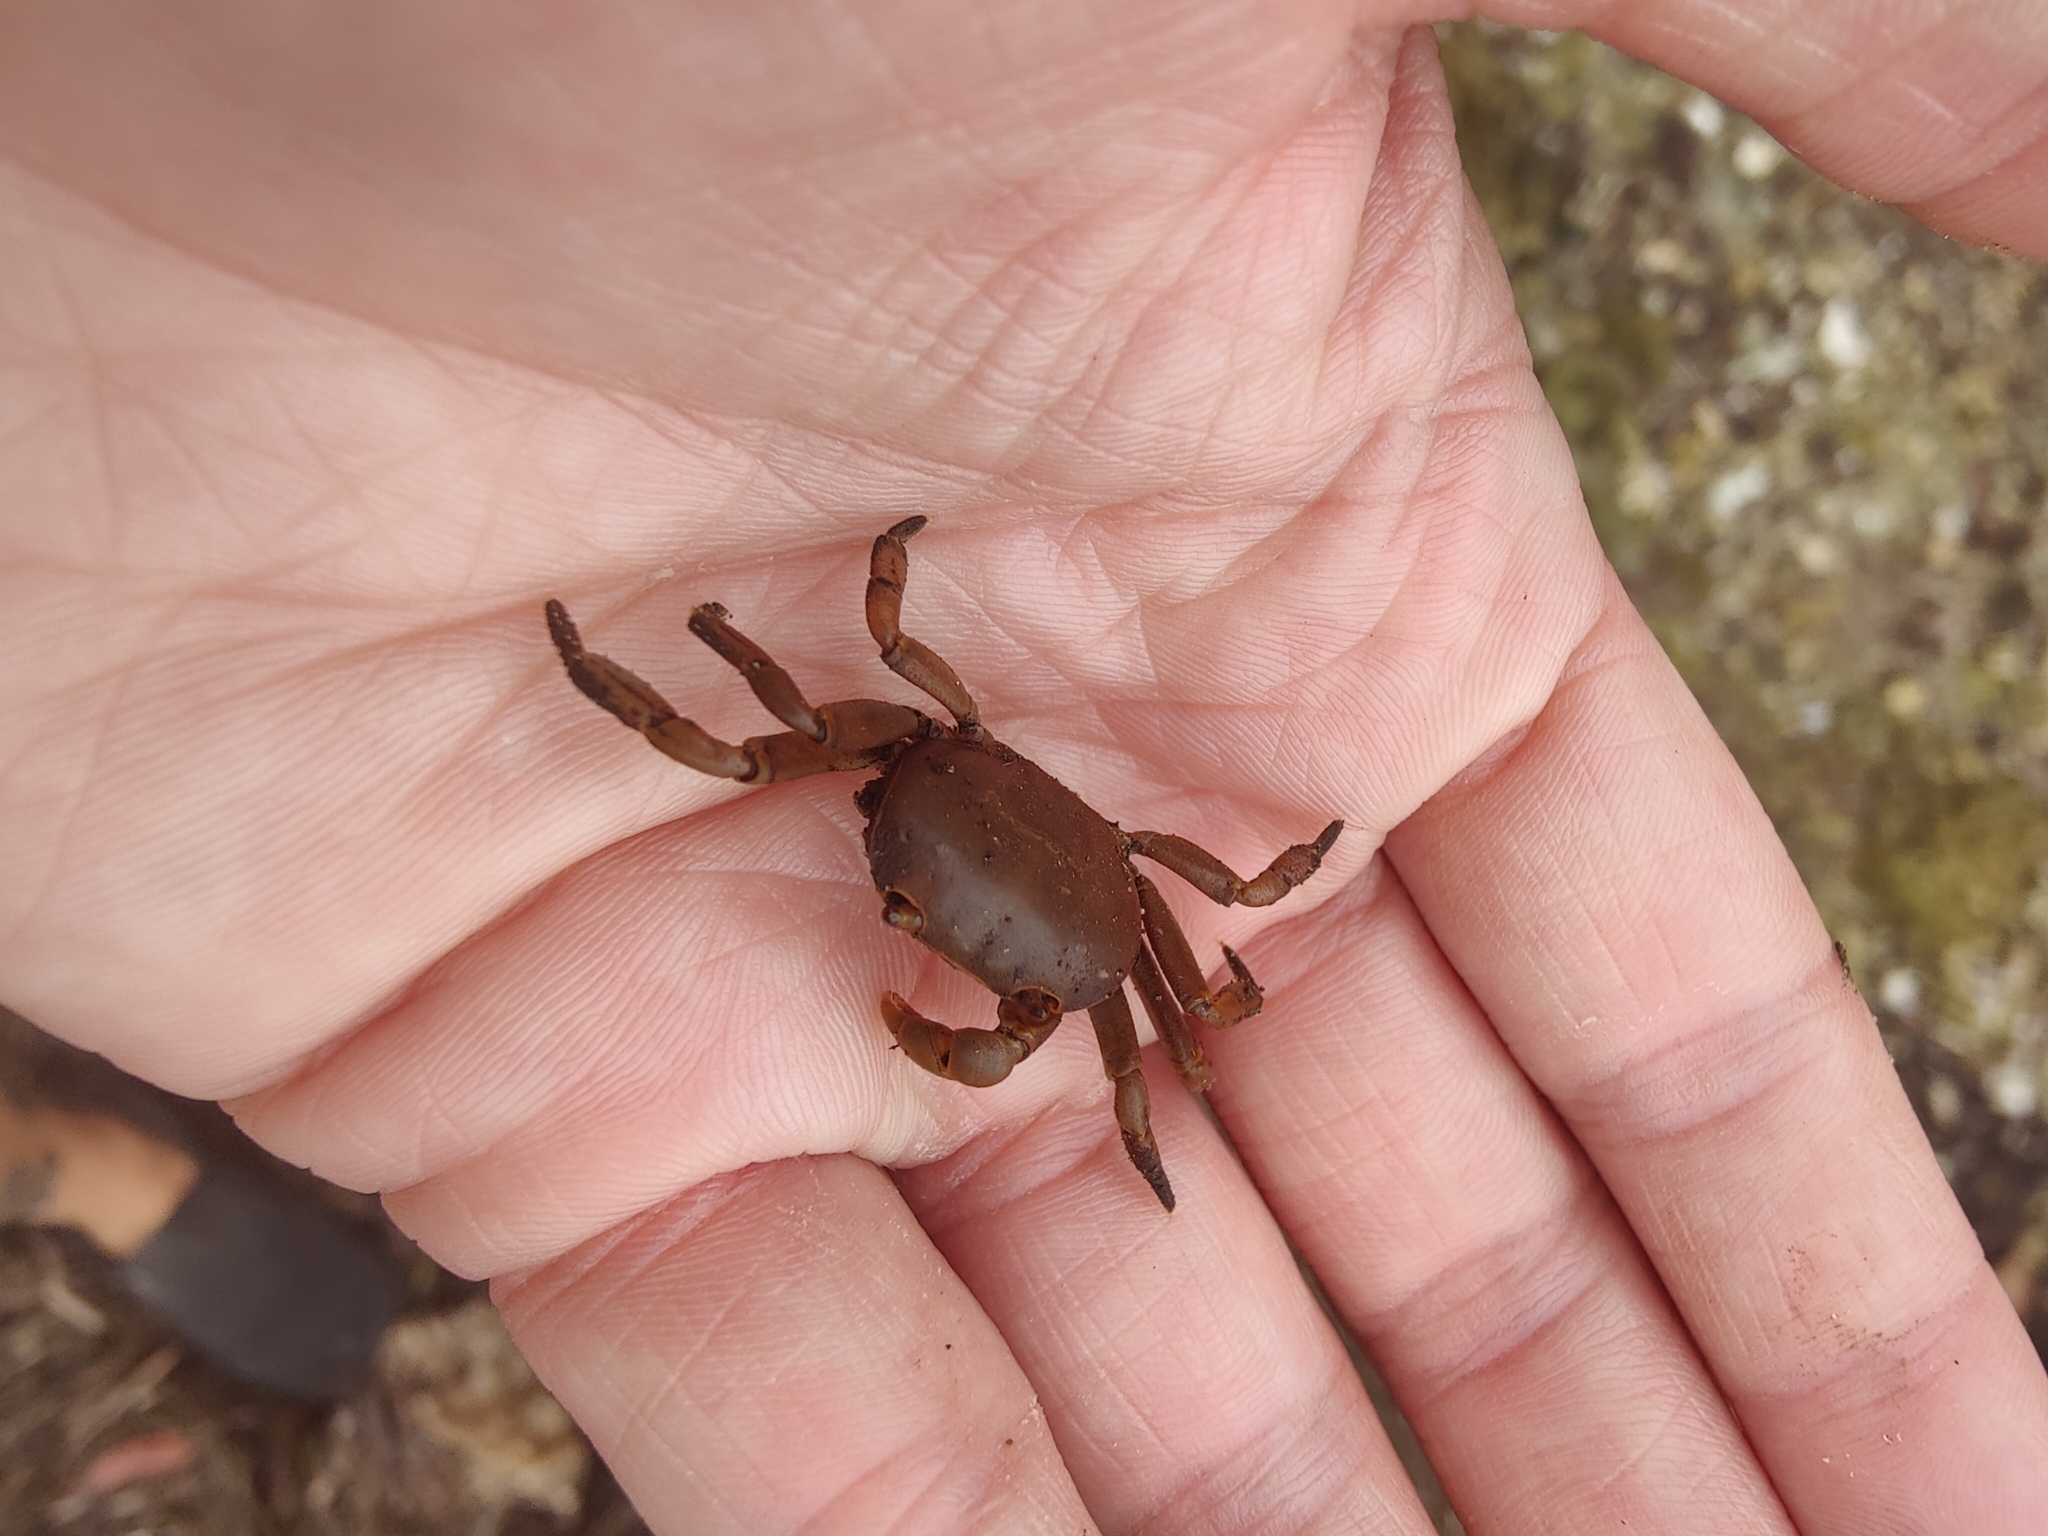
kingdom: Animalia
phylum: Arthropoda
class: Malacostraca
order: Decapoda
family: Varunidae
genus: Cyclograpsus
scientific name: Cyclograpsus integer
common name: Globose shore crab
